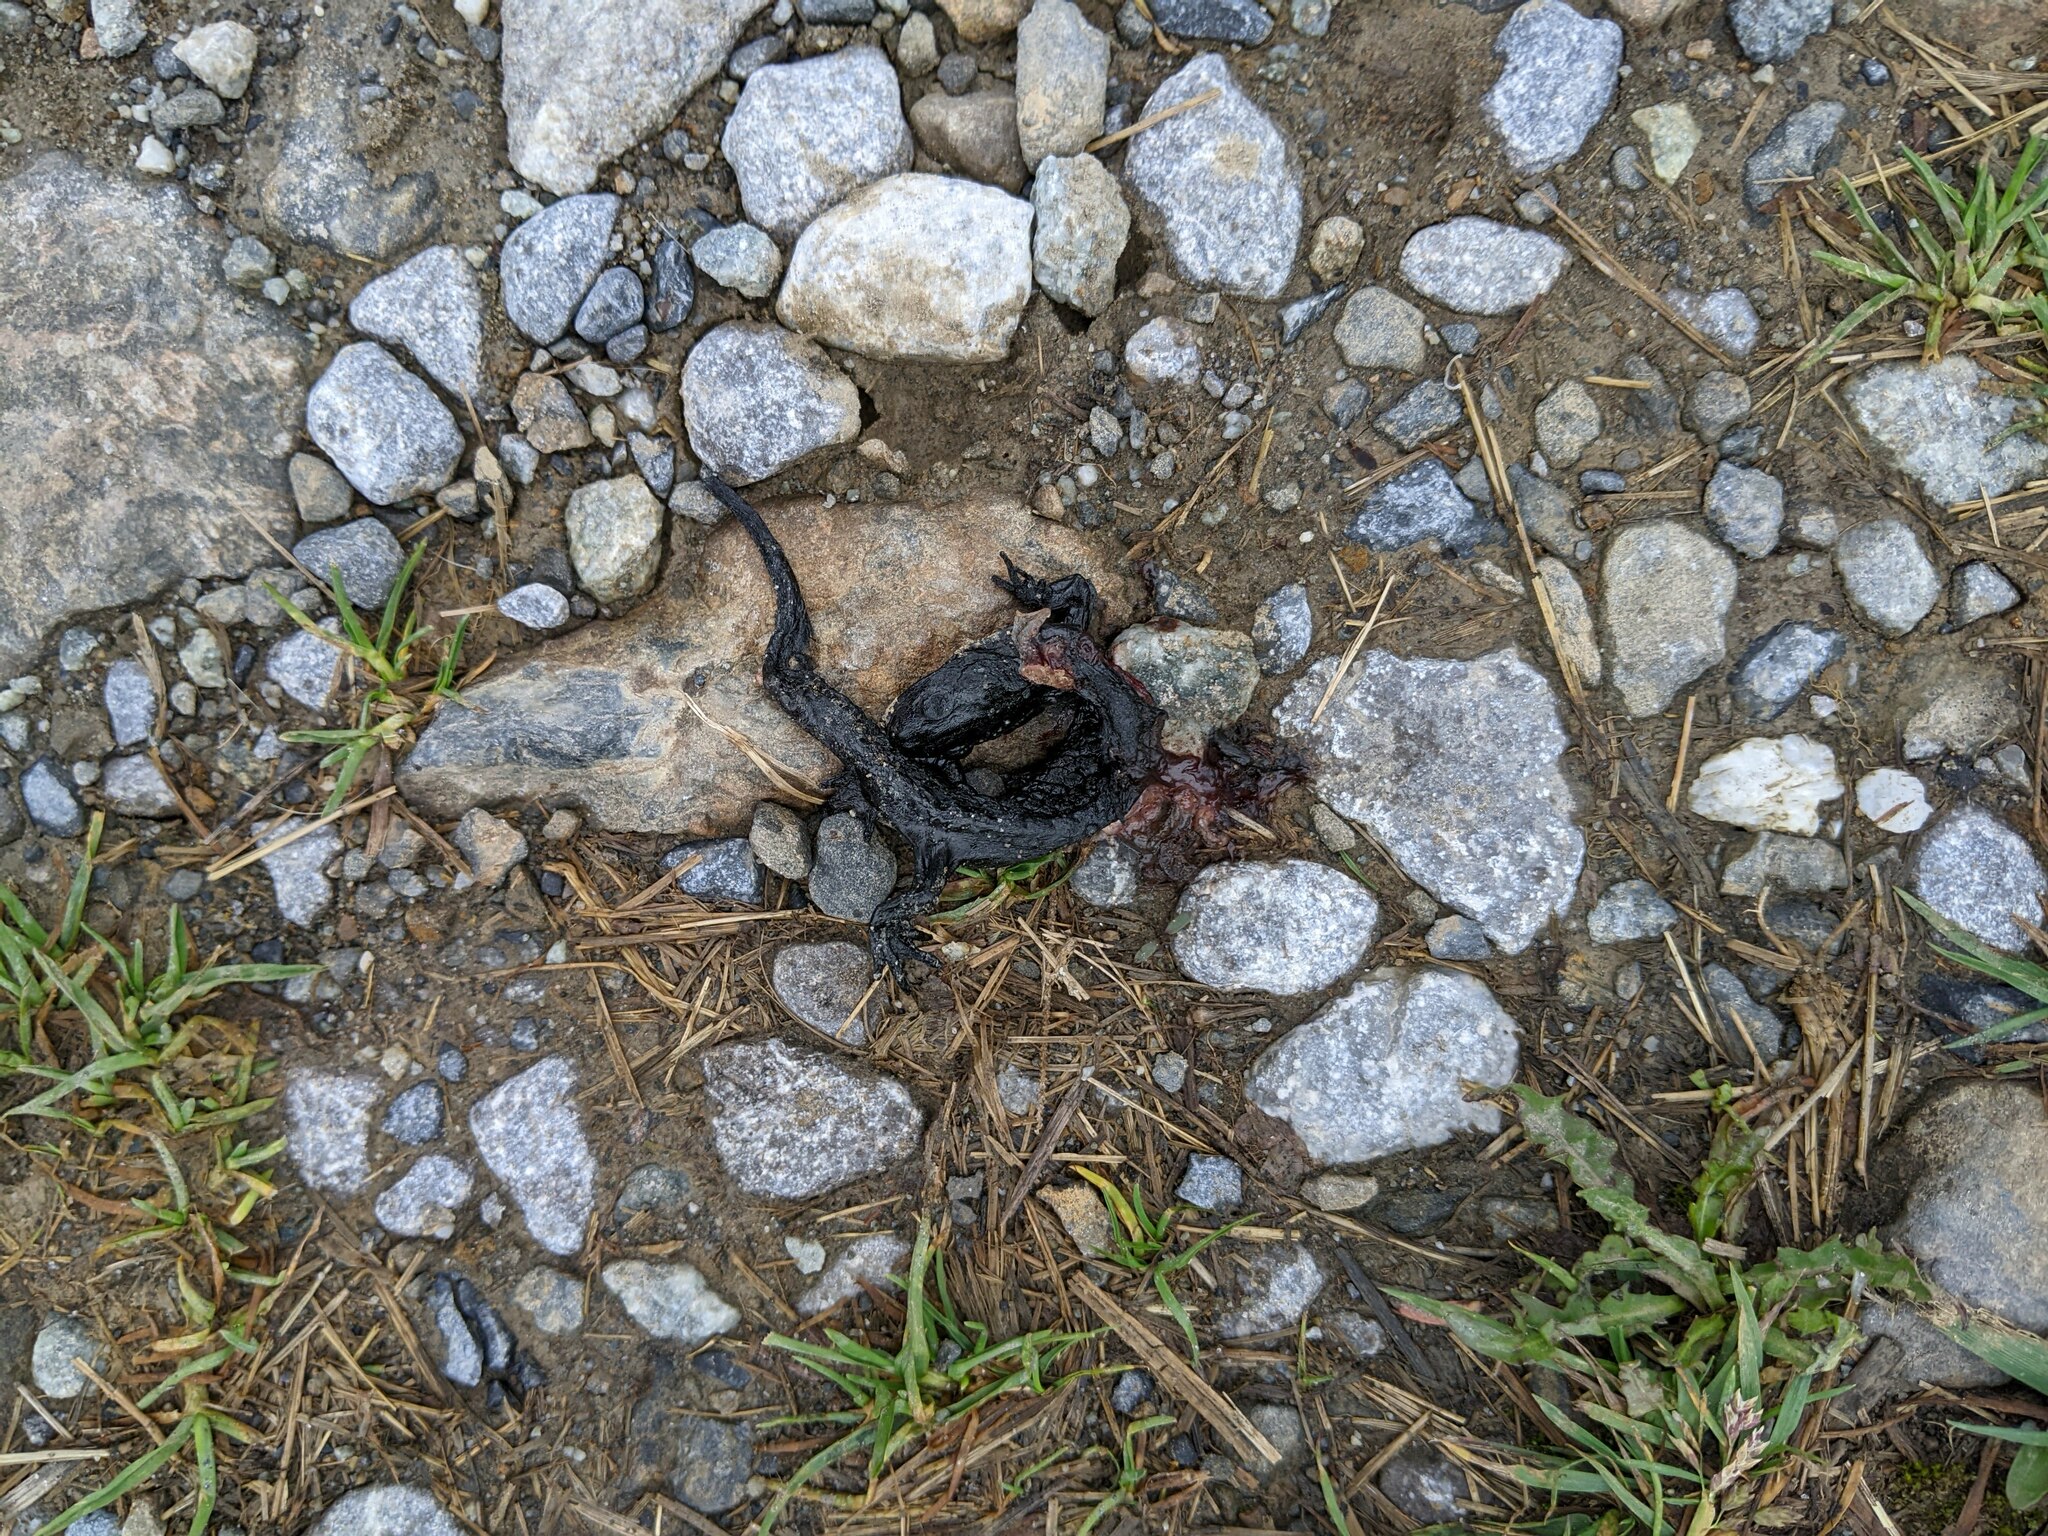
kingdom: Animalia
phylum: Chordata
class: Amphibia
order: Caudata
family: Salamandridae
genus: Salamandra
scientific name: Salamandra atra
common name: Alpine salamander
